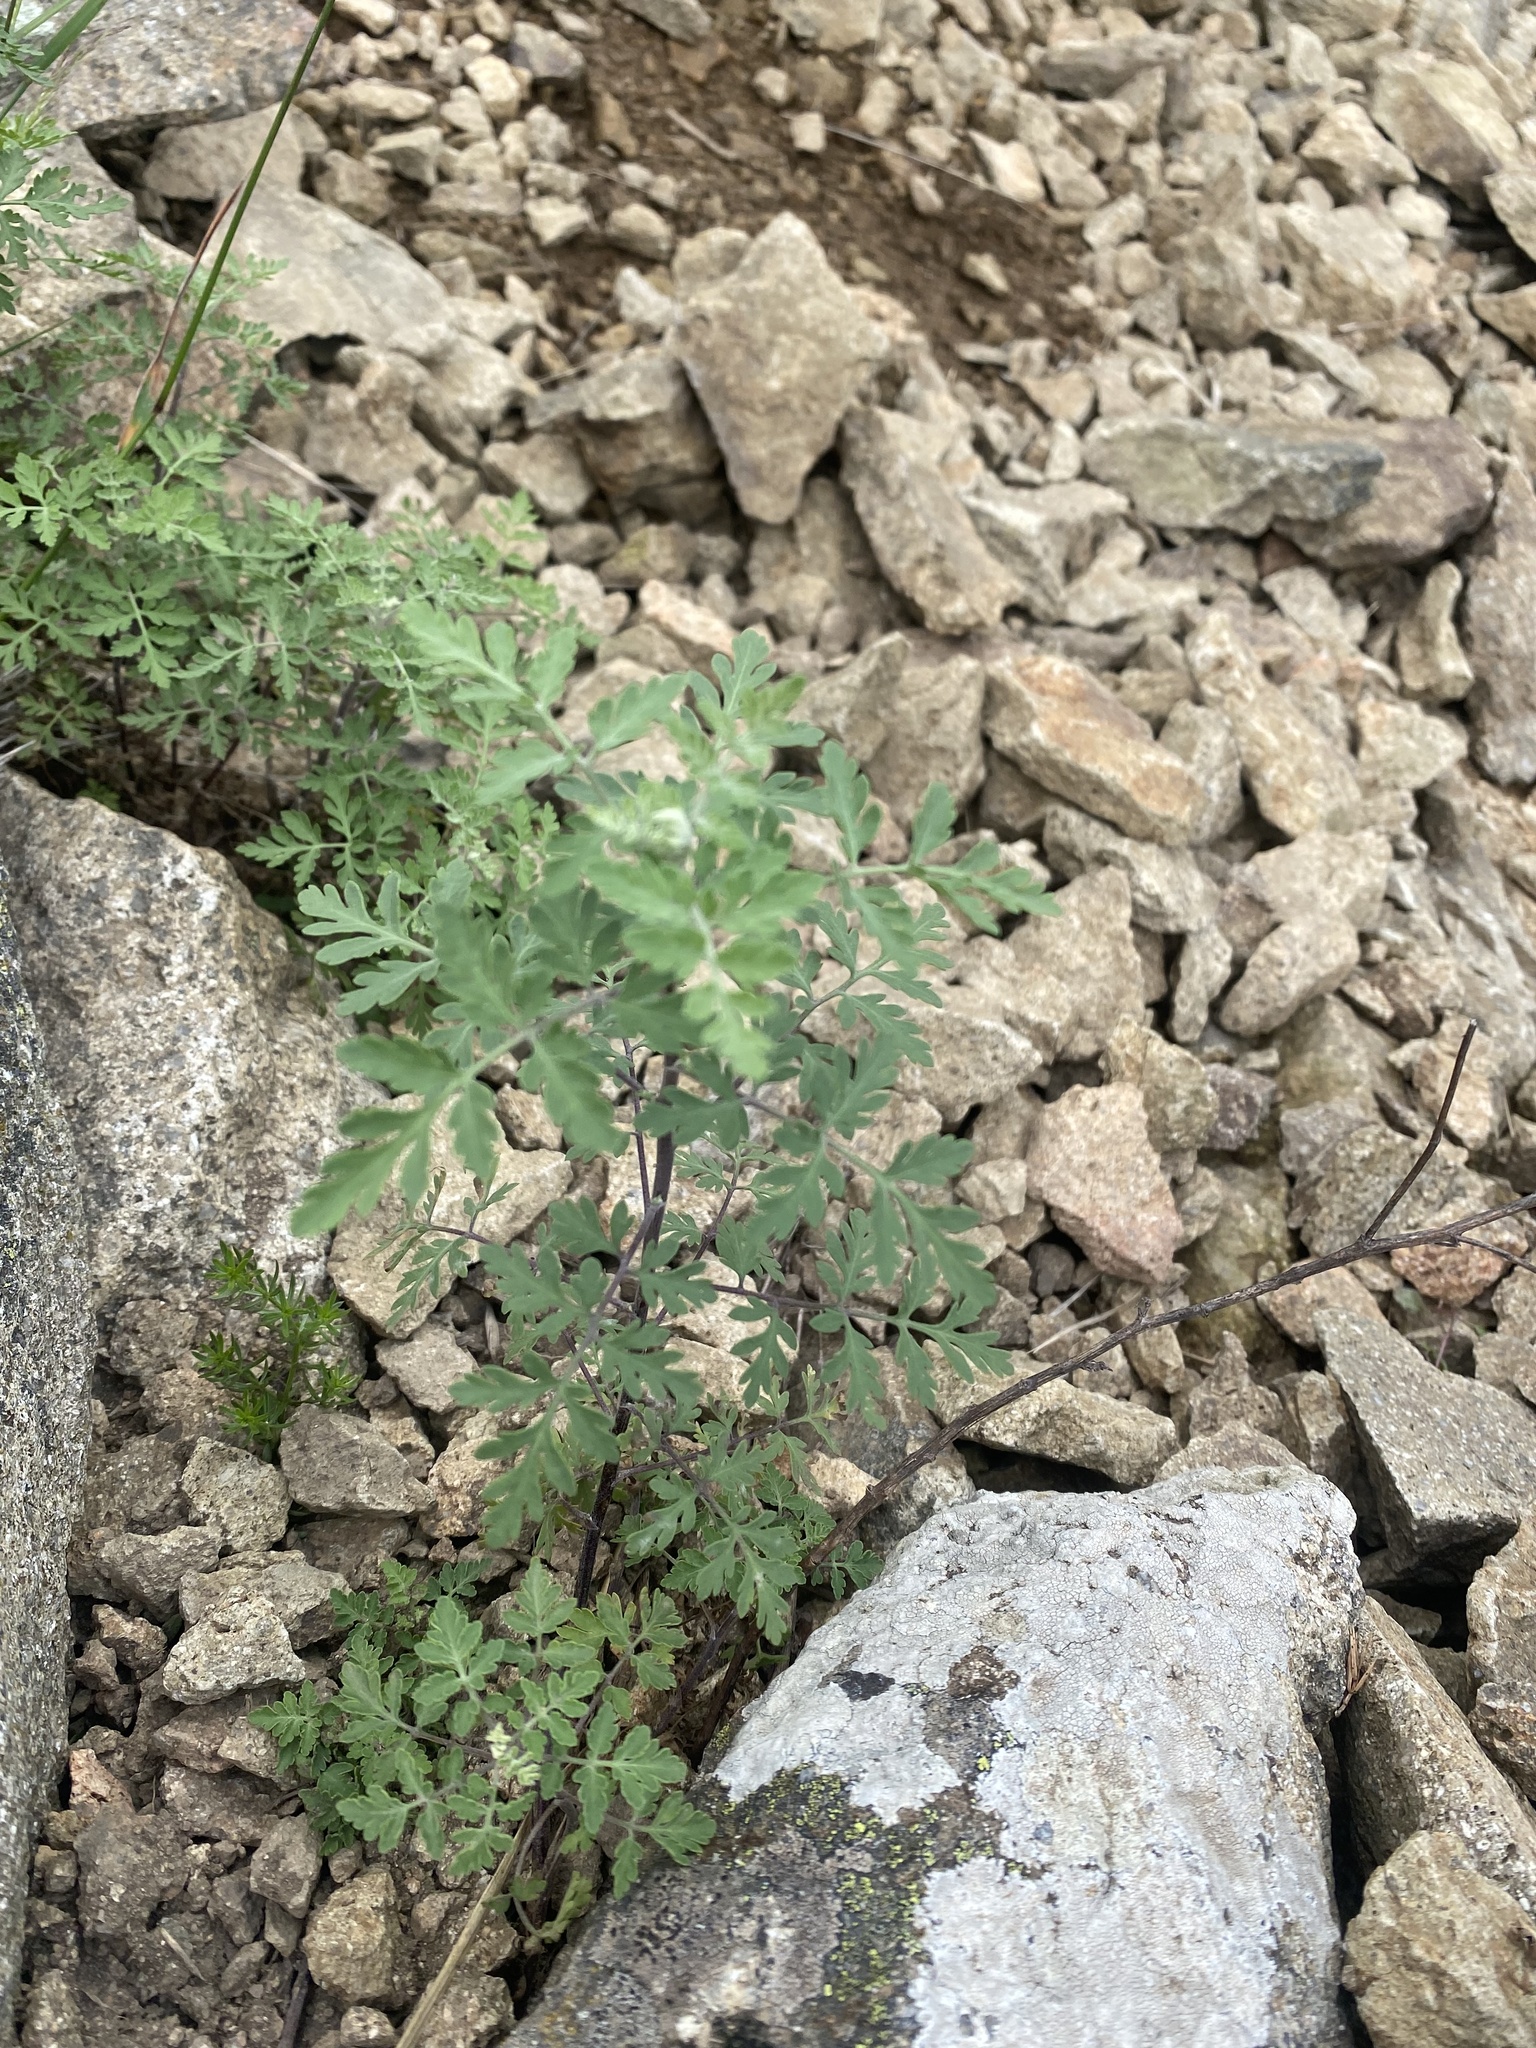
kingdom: Plantae
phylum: Tracheophyta
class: Magnoliopsida
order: Asterales
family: Asteraceae
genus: Tanacetum
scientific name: Tanacetum partheniifolium
